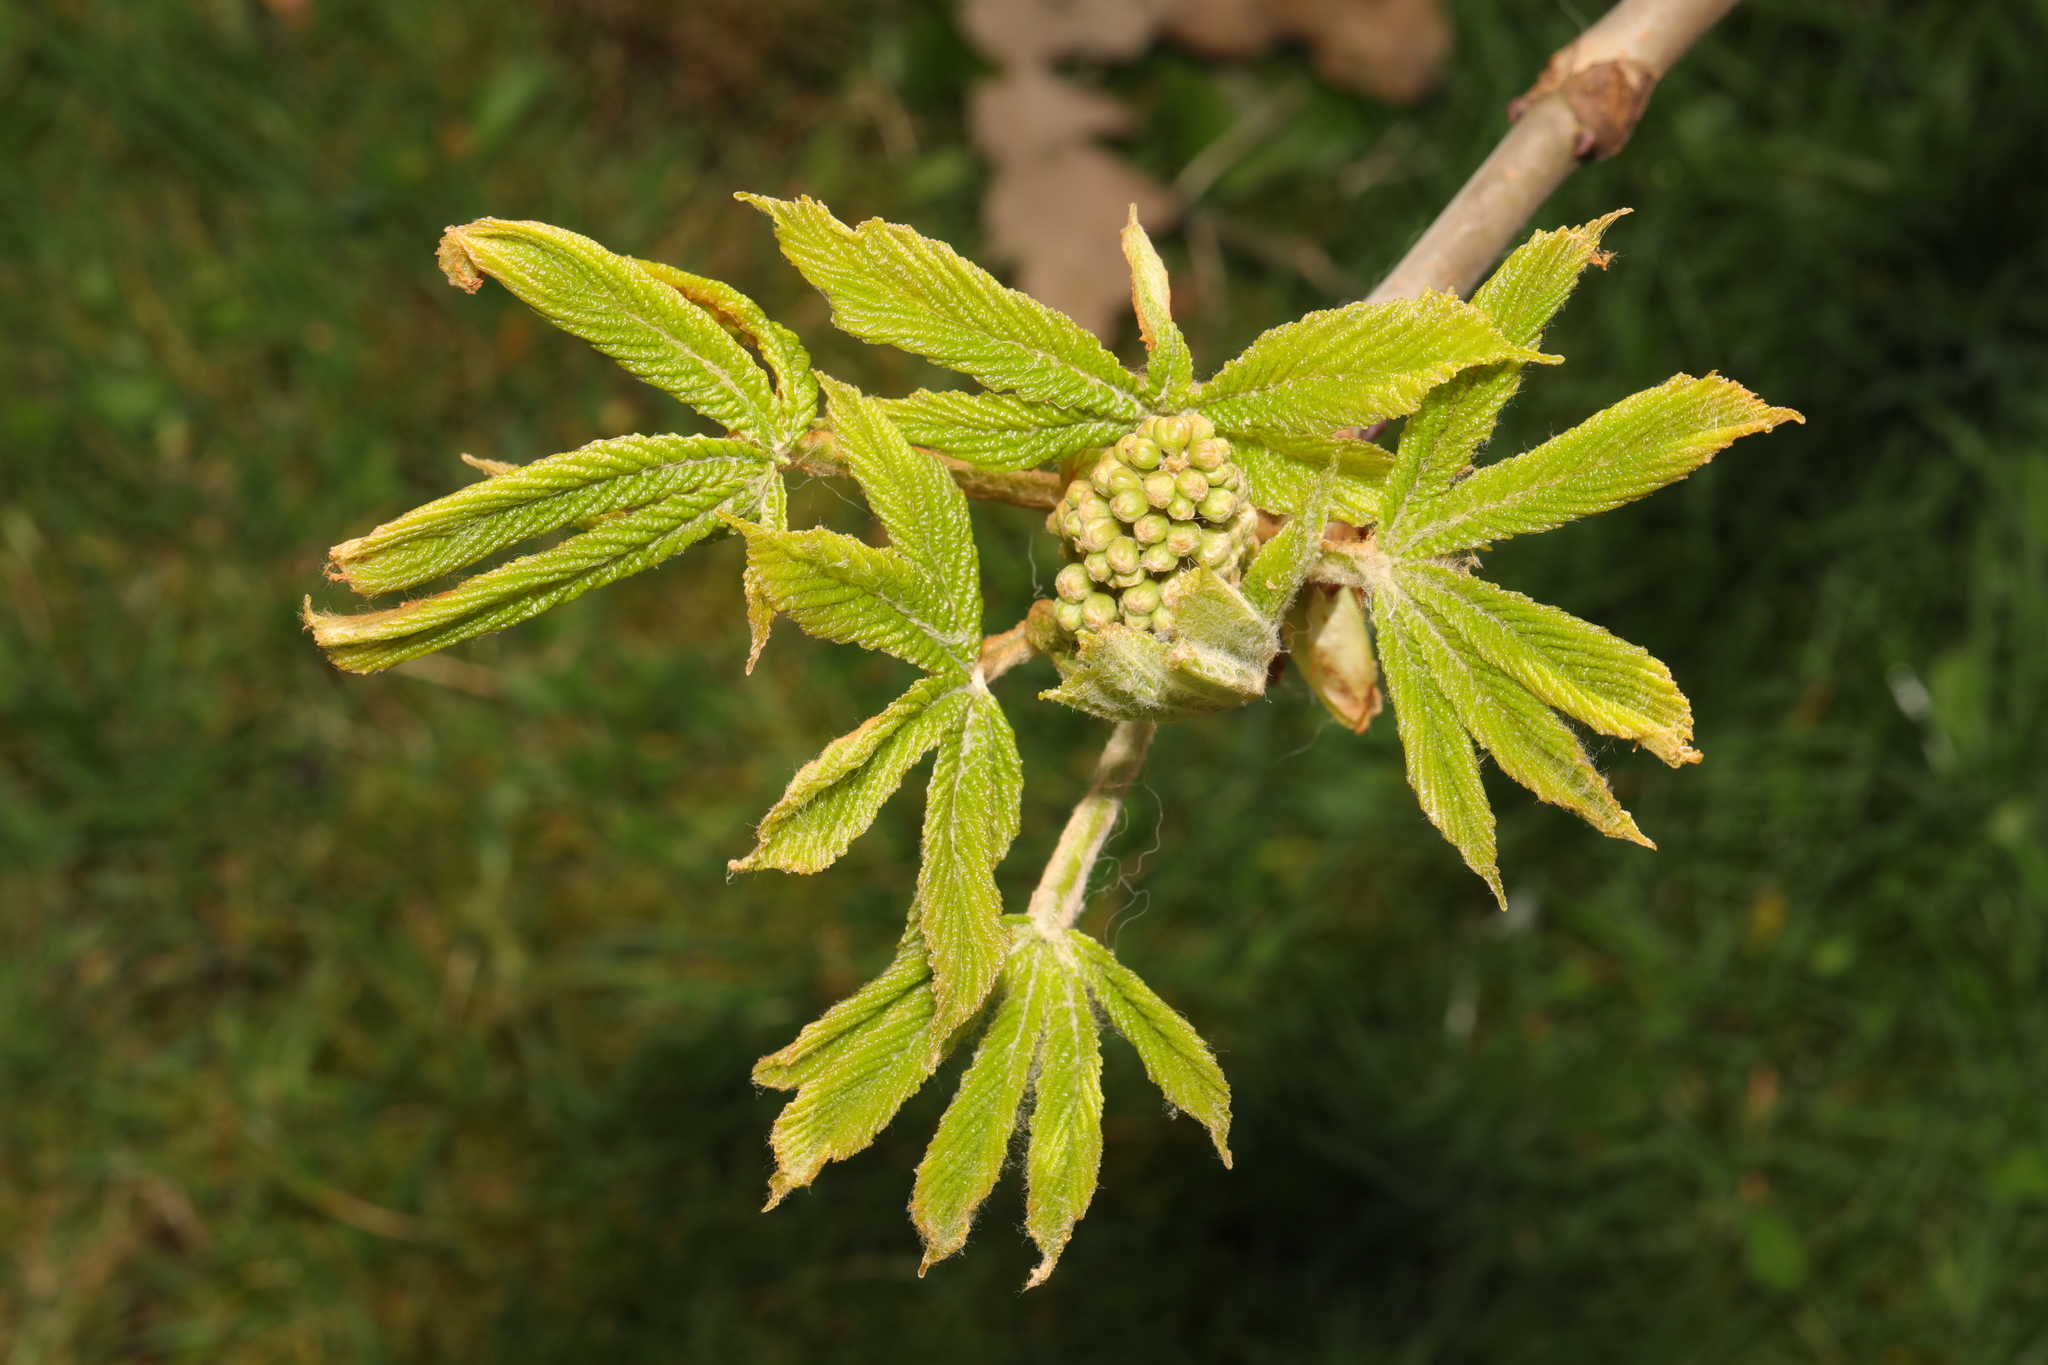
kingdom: Plantae
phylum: Tracheophyta
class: Magnoliopsida
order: Sapindales
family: Sapindaceae
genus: Aesculus
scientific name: Aesculus hippocastanum
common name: Horse-chestnut
